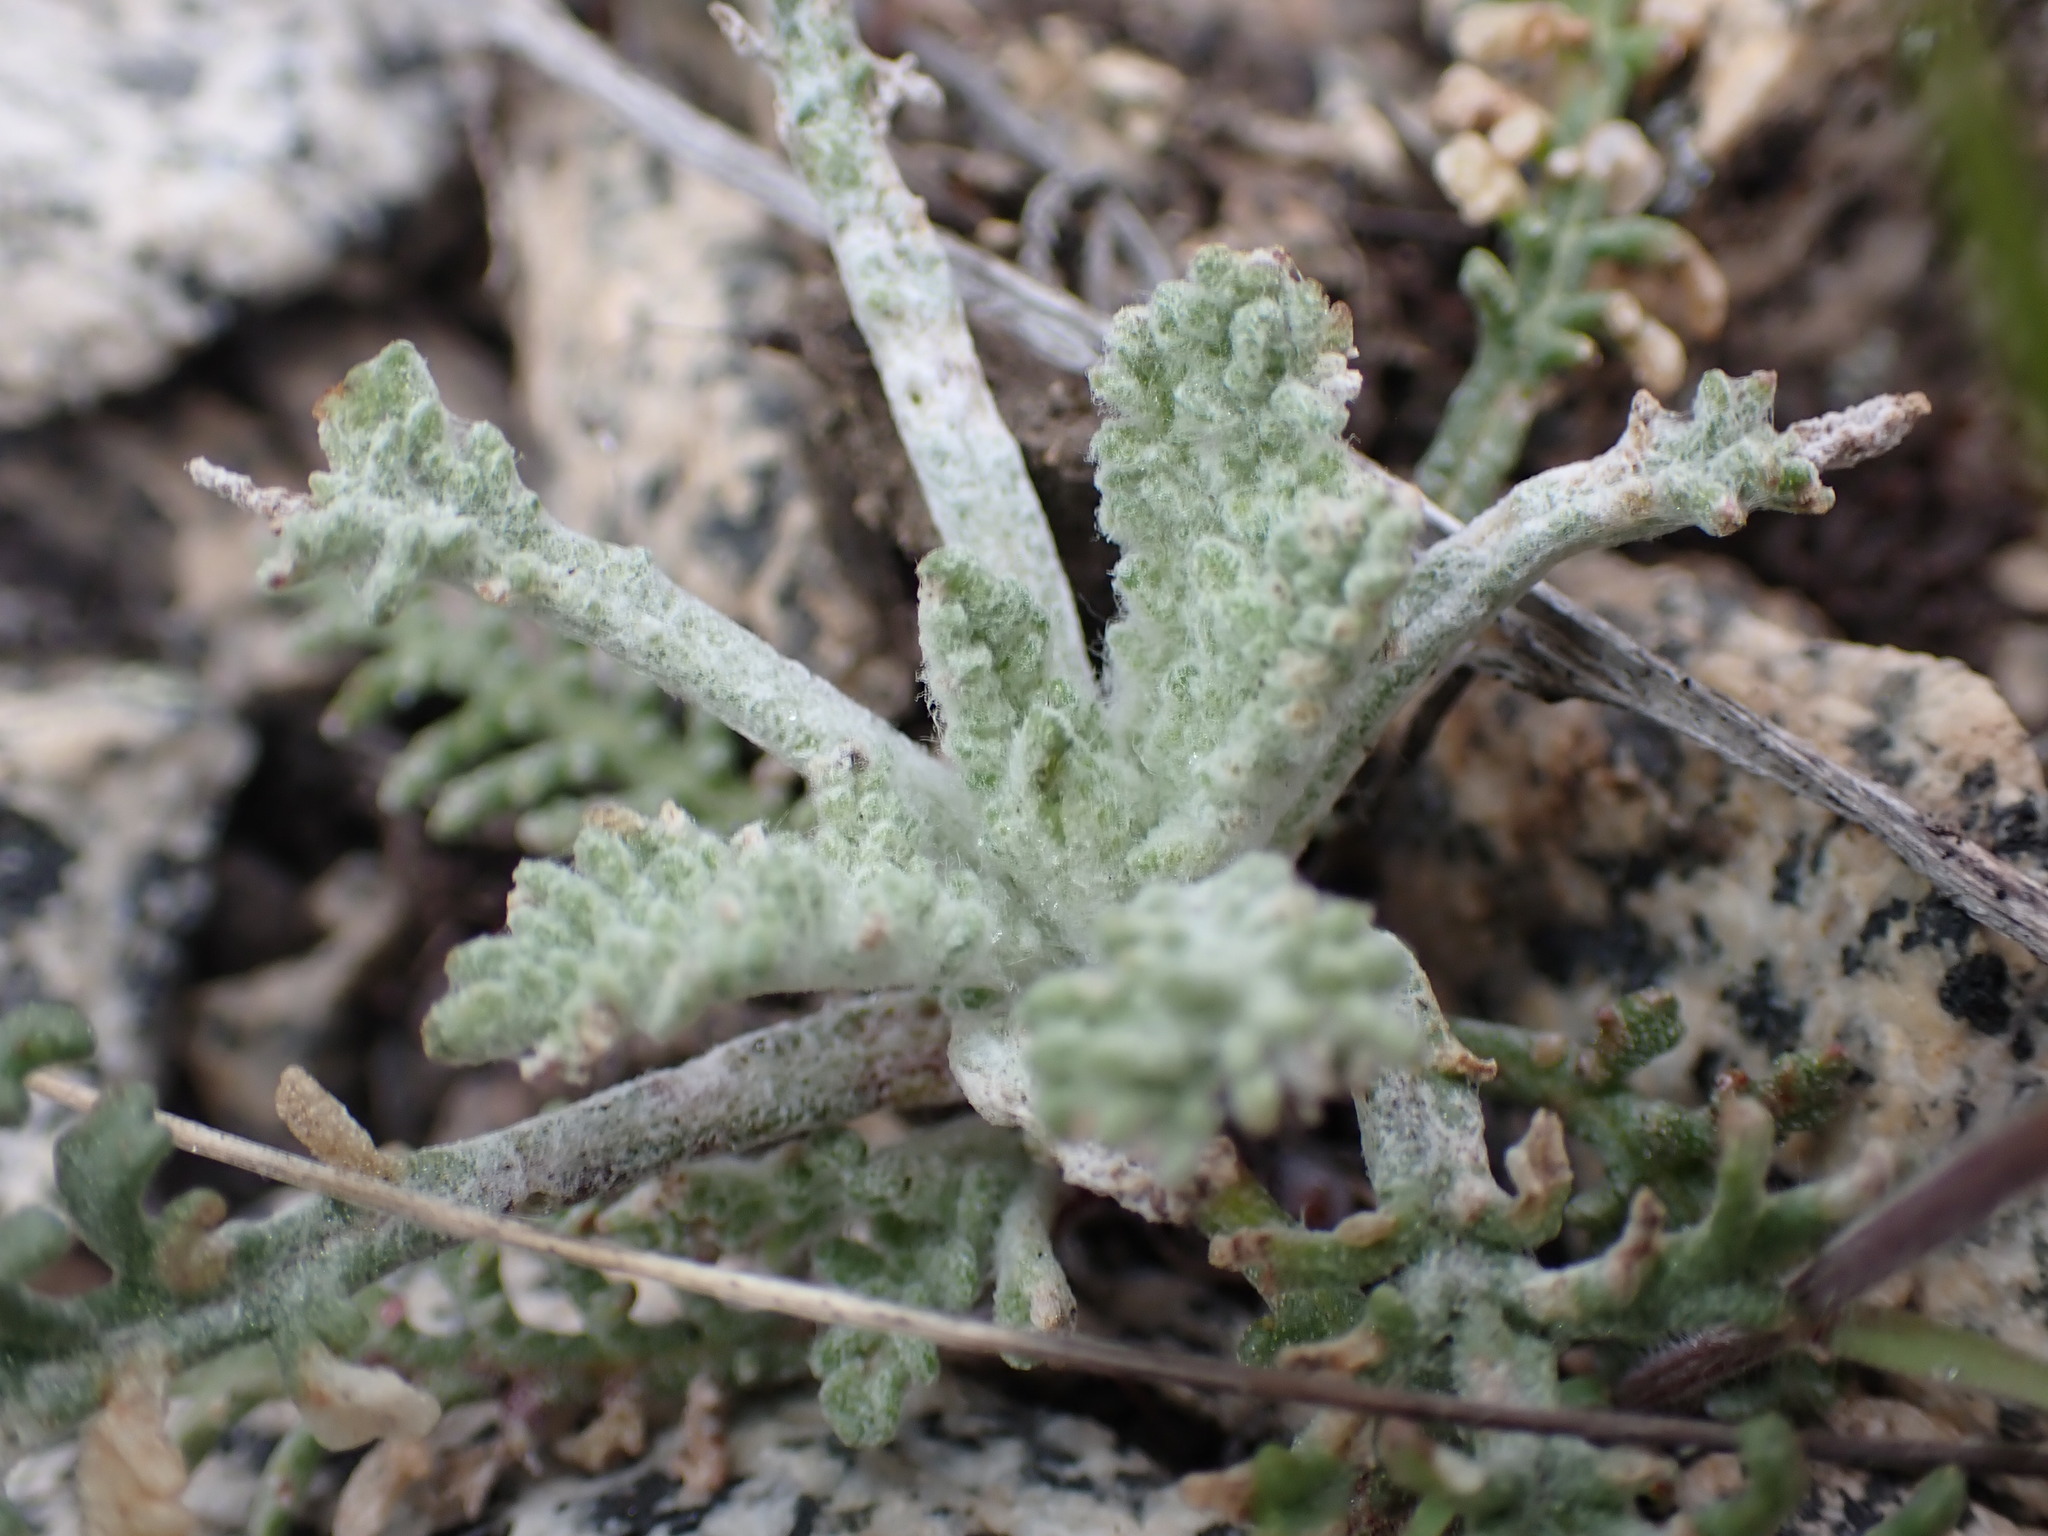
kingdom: Plantae
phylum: Tracheophyta
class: Magnoliopsida
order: Asterales
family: Asteraceae
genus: Chaenactis
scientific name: Chaenactis douglasii
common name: Hoary pincushion
